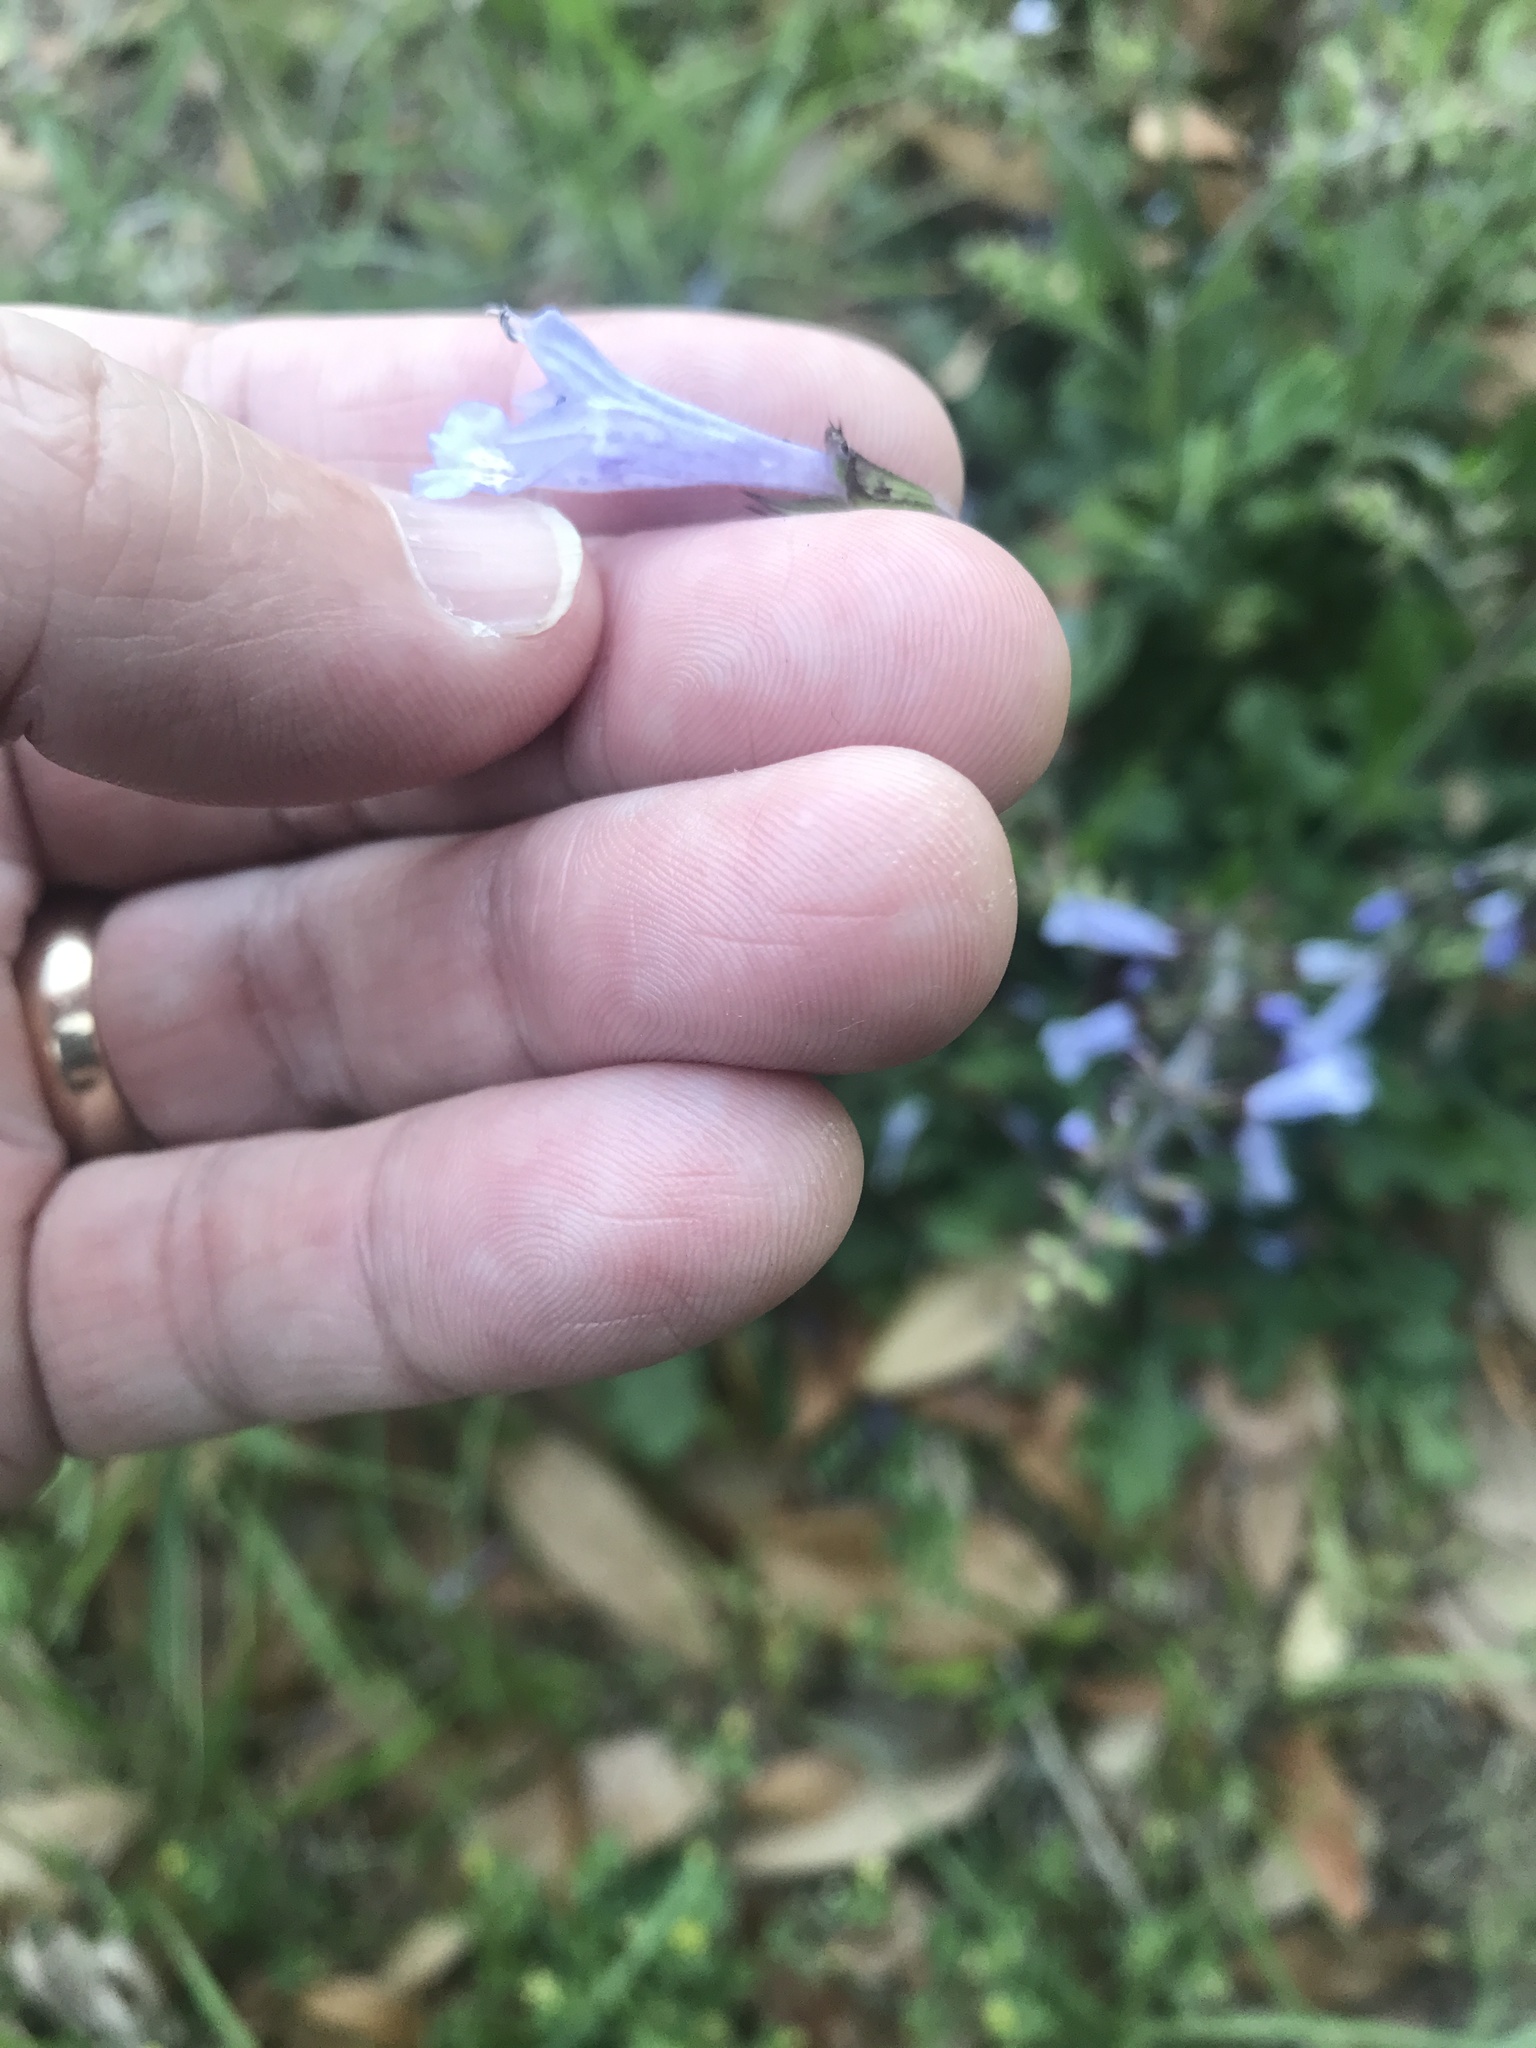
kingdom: Plantae
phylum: Tracheophyta
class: Magnoliopsida
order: Lamiales
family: Lamiaceae
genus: Salvia
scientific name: Salvia lyrata
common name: Cancerweed
